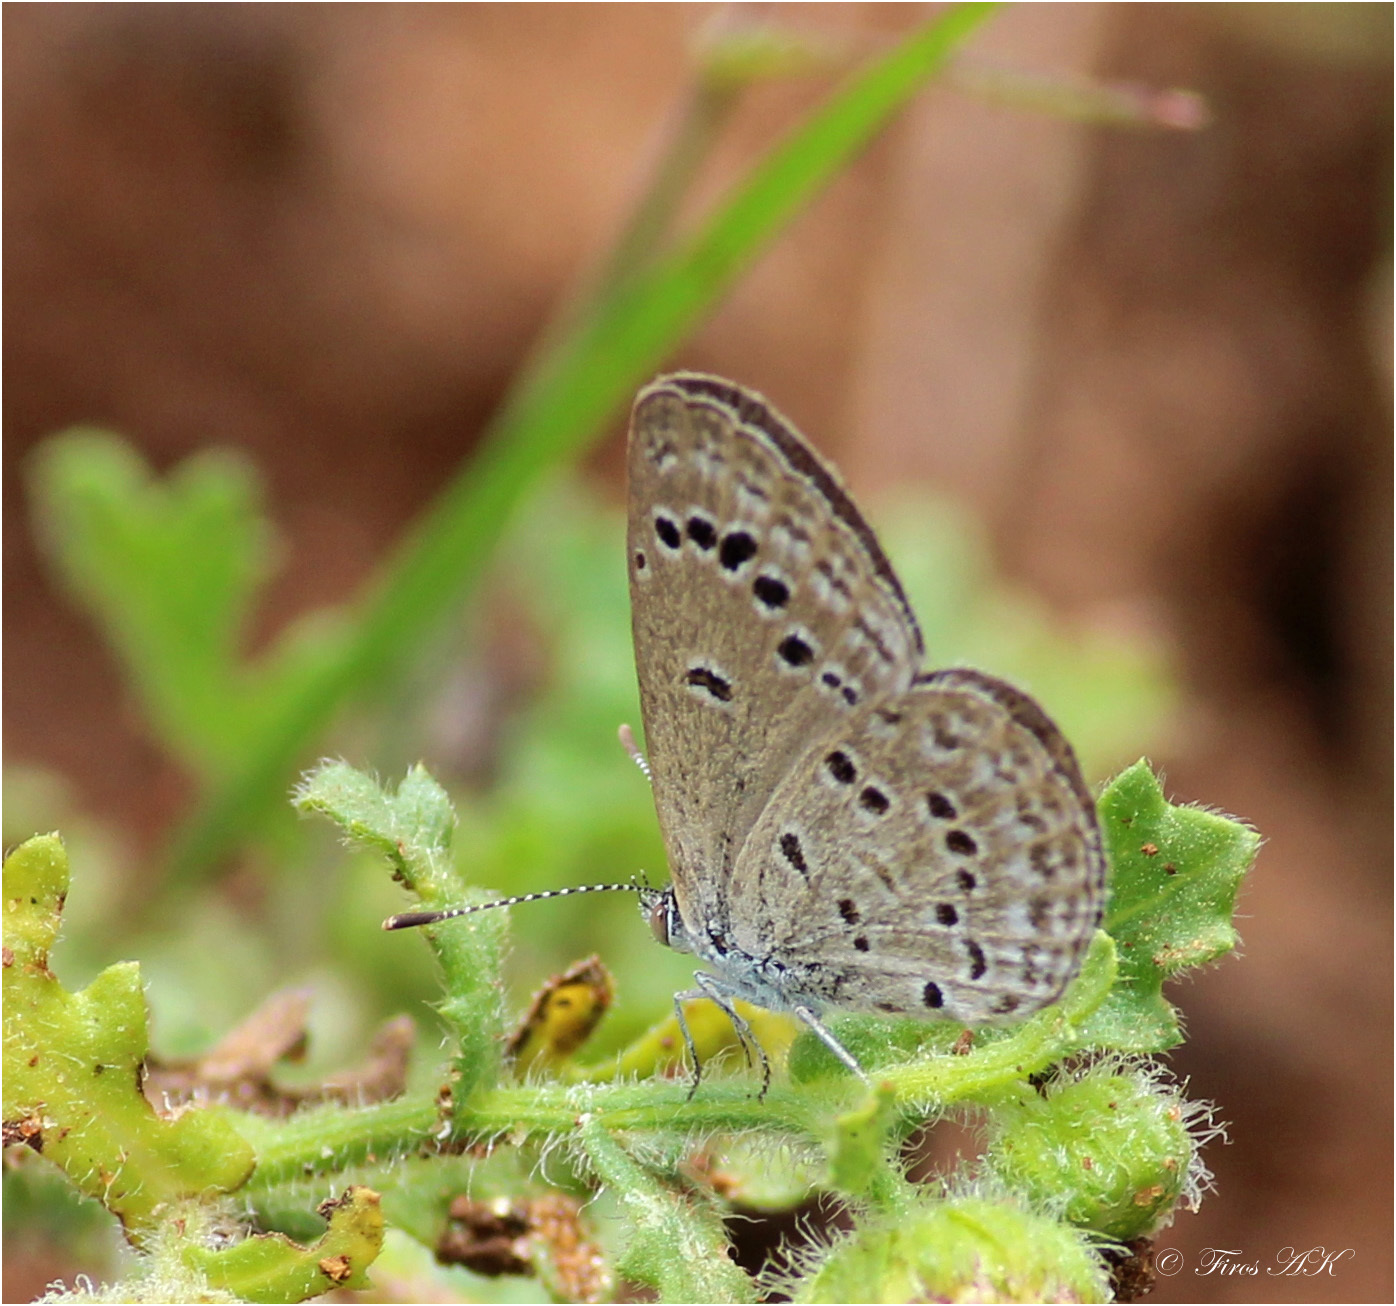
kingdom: Animalia
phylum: Arthropoda
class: Insecta
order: Lepidoptera
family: Lycaenidae
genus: Zizina
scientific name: Zizina otis
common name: Lesser grass blue
